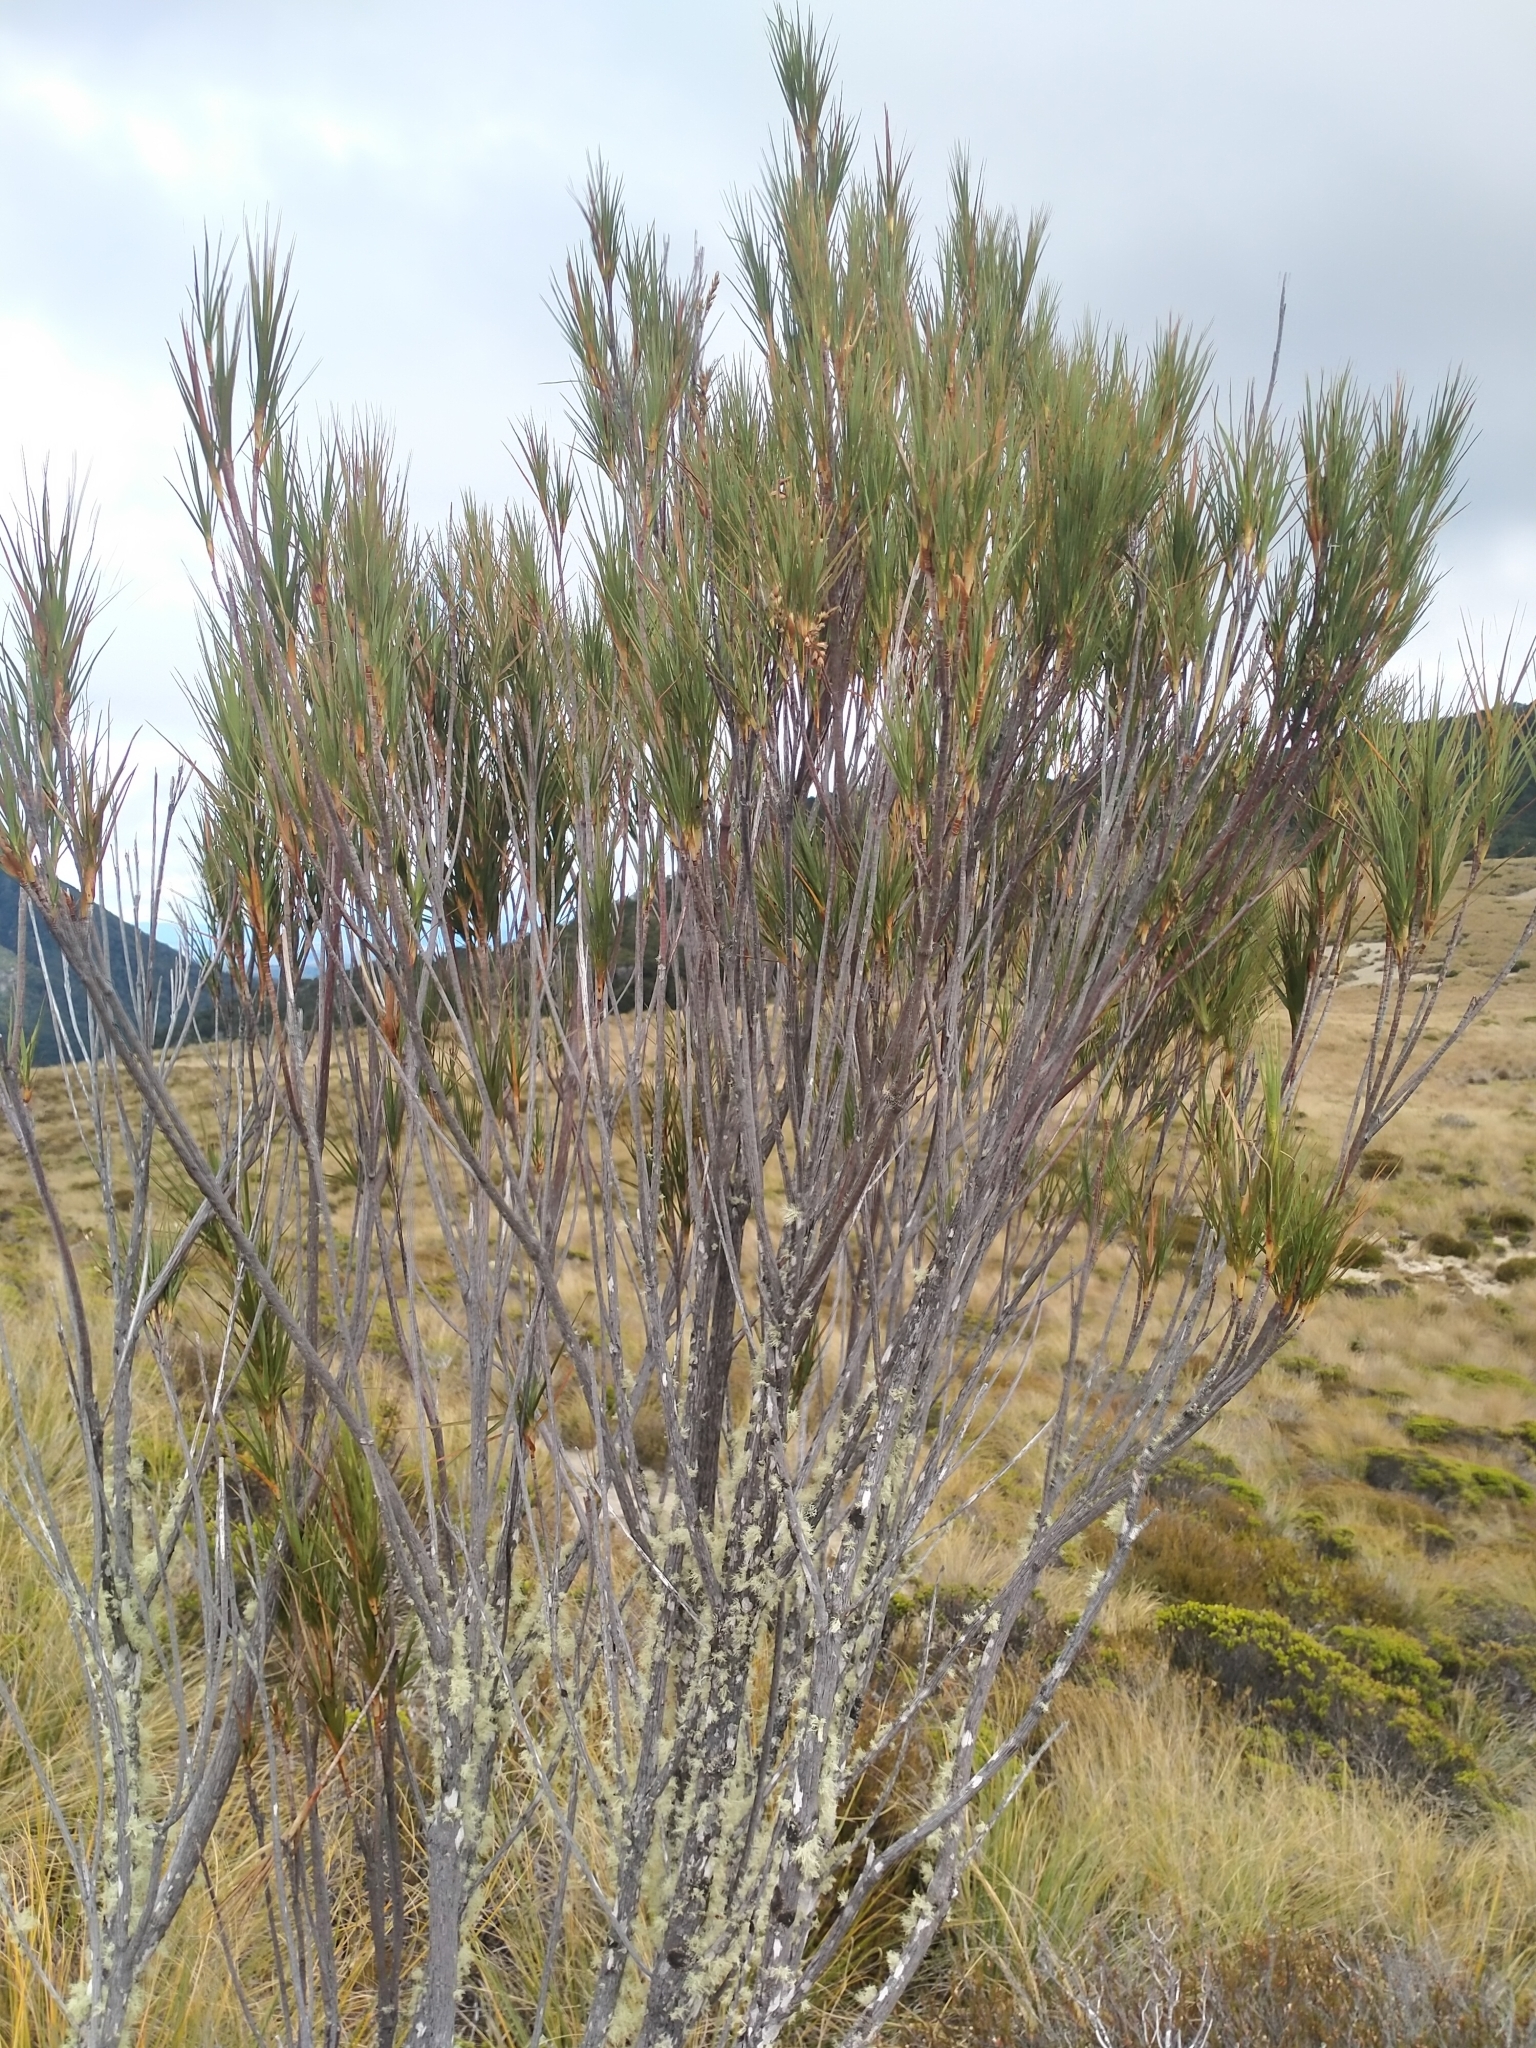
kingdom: Plantae
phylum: Tracheophyta
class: Magnoliopsida
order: Ericales
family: Ericaceae
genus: Dracophyllum
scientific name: Dracophyllum longifolium
